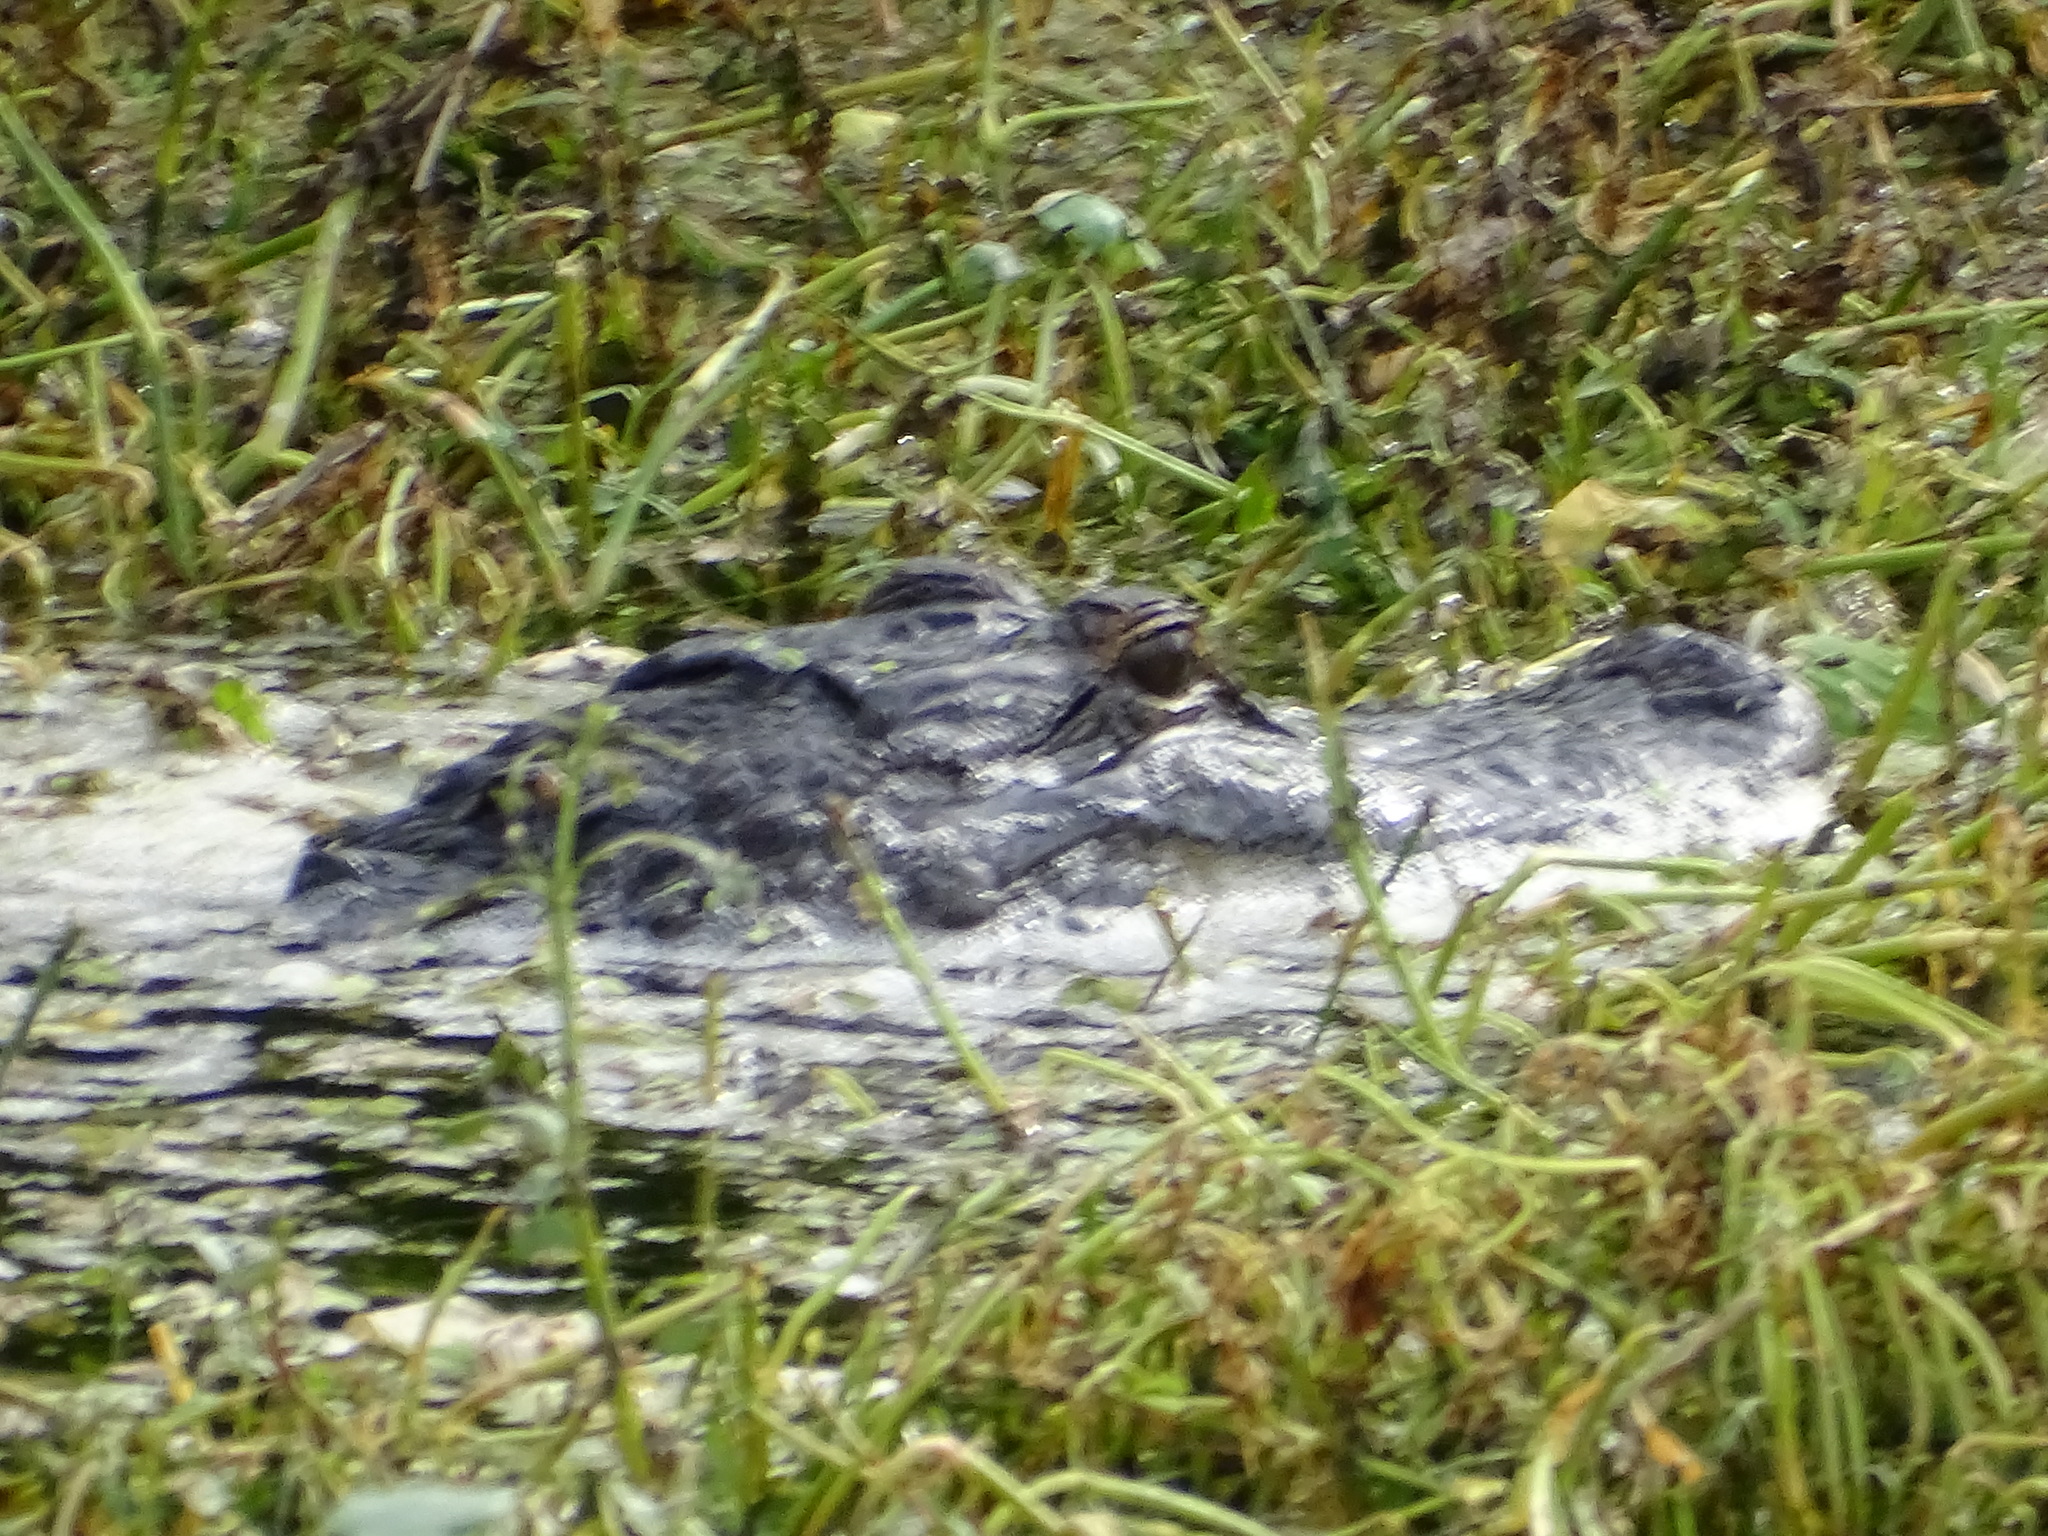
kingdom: Animalia
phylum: Chordata
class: Crocodylia
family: Alligatoridae
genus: Alligator
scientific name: Alligator mississippiensis
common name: American alligator
